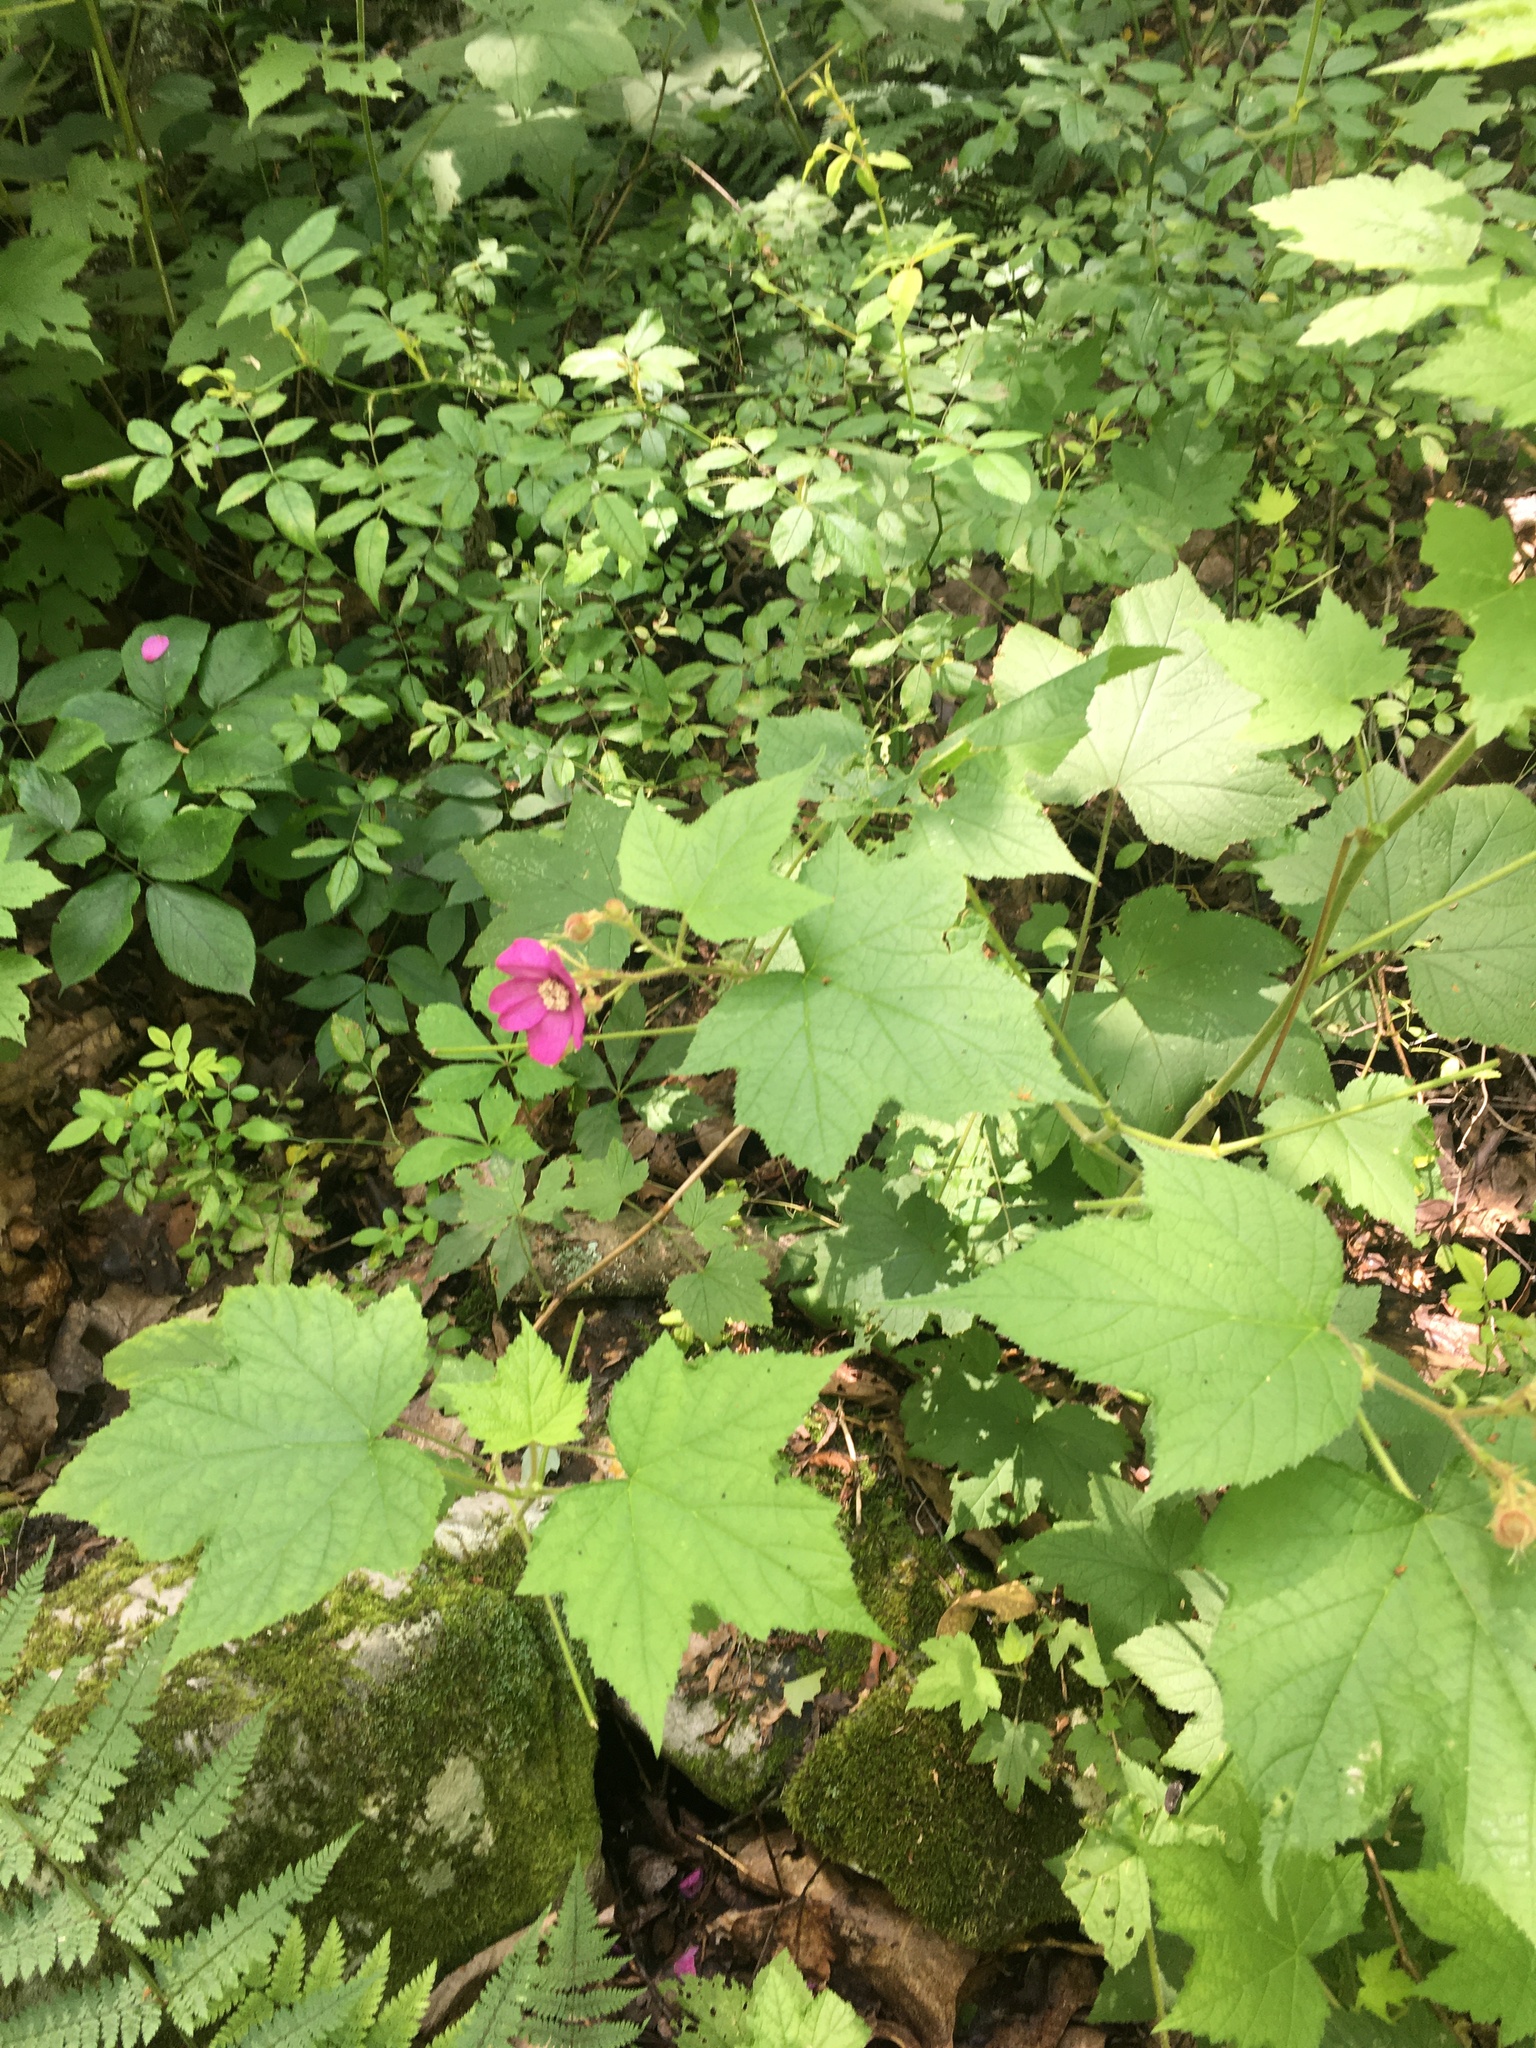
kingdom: Plantae
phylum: Tracheophyta
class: Magnoliopsida
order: Rosales
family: Rosaceae
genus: Rubus
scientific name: Rubus odoratus
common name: Purple-flowered raspberry
